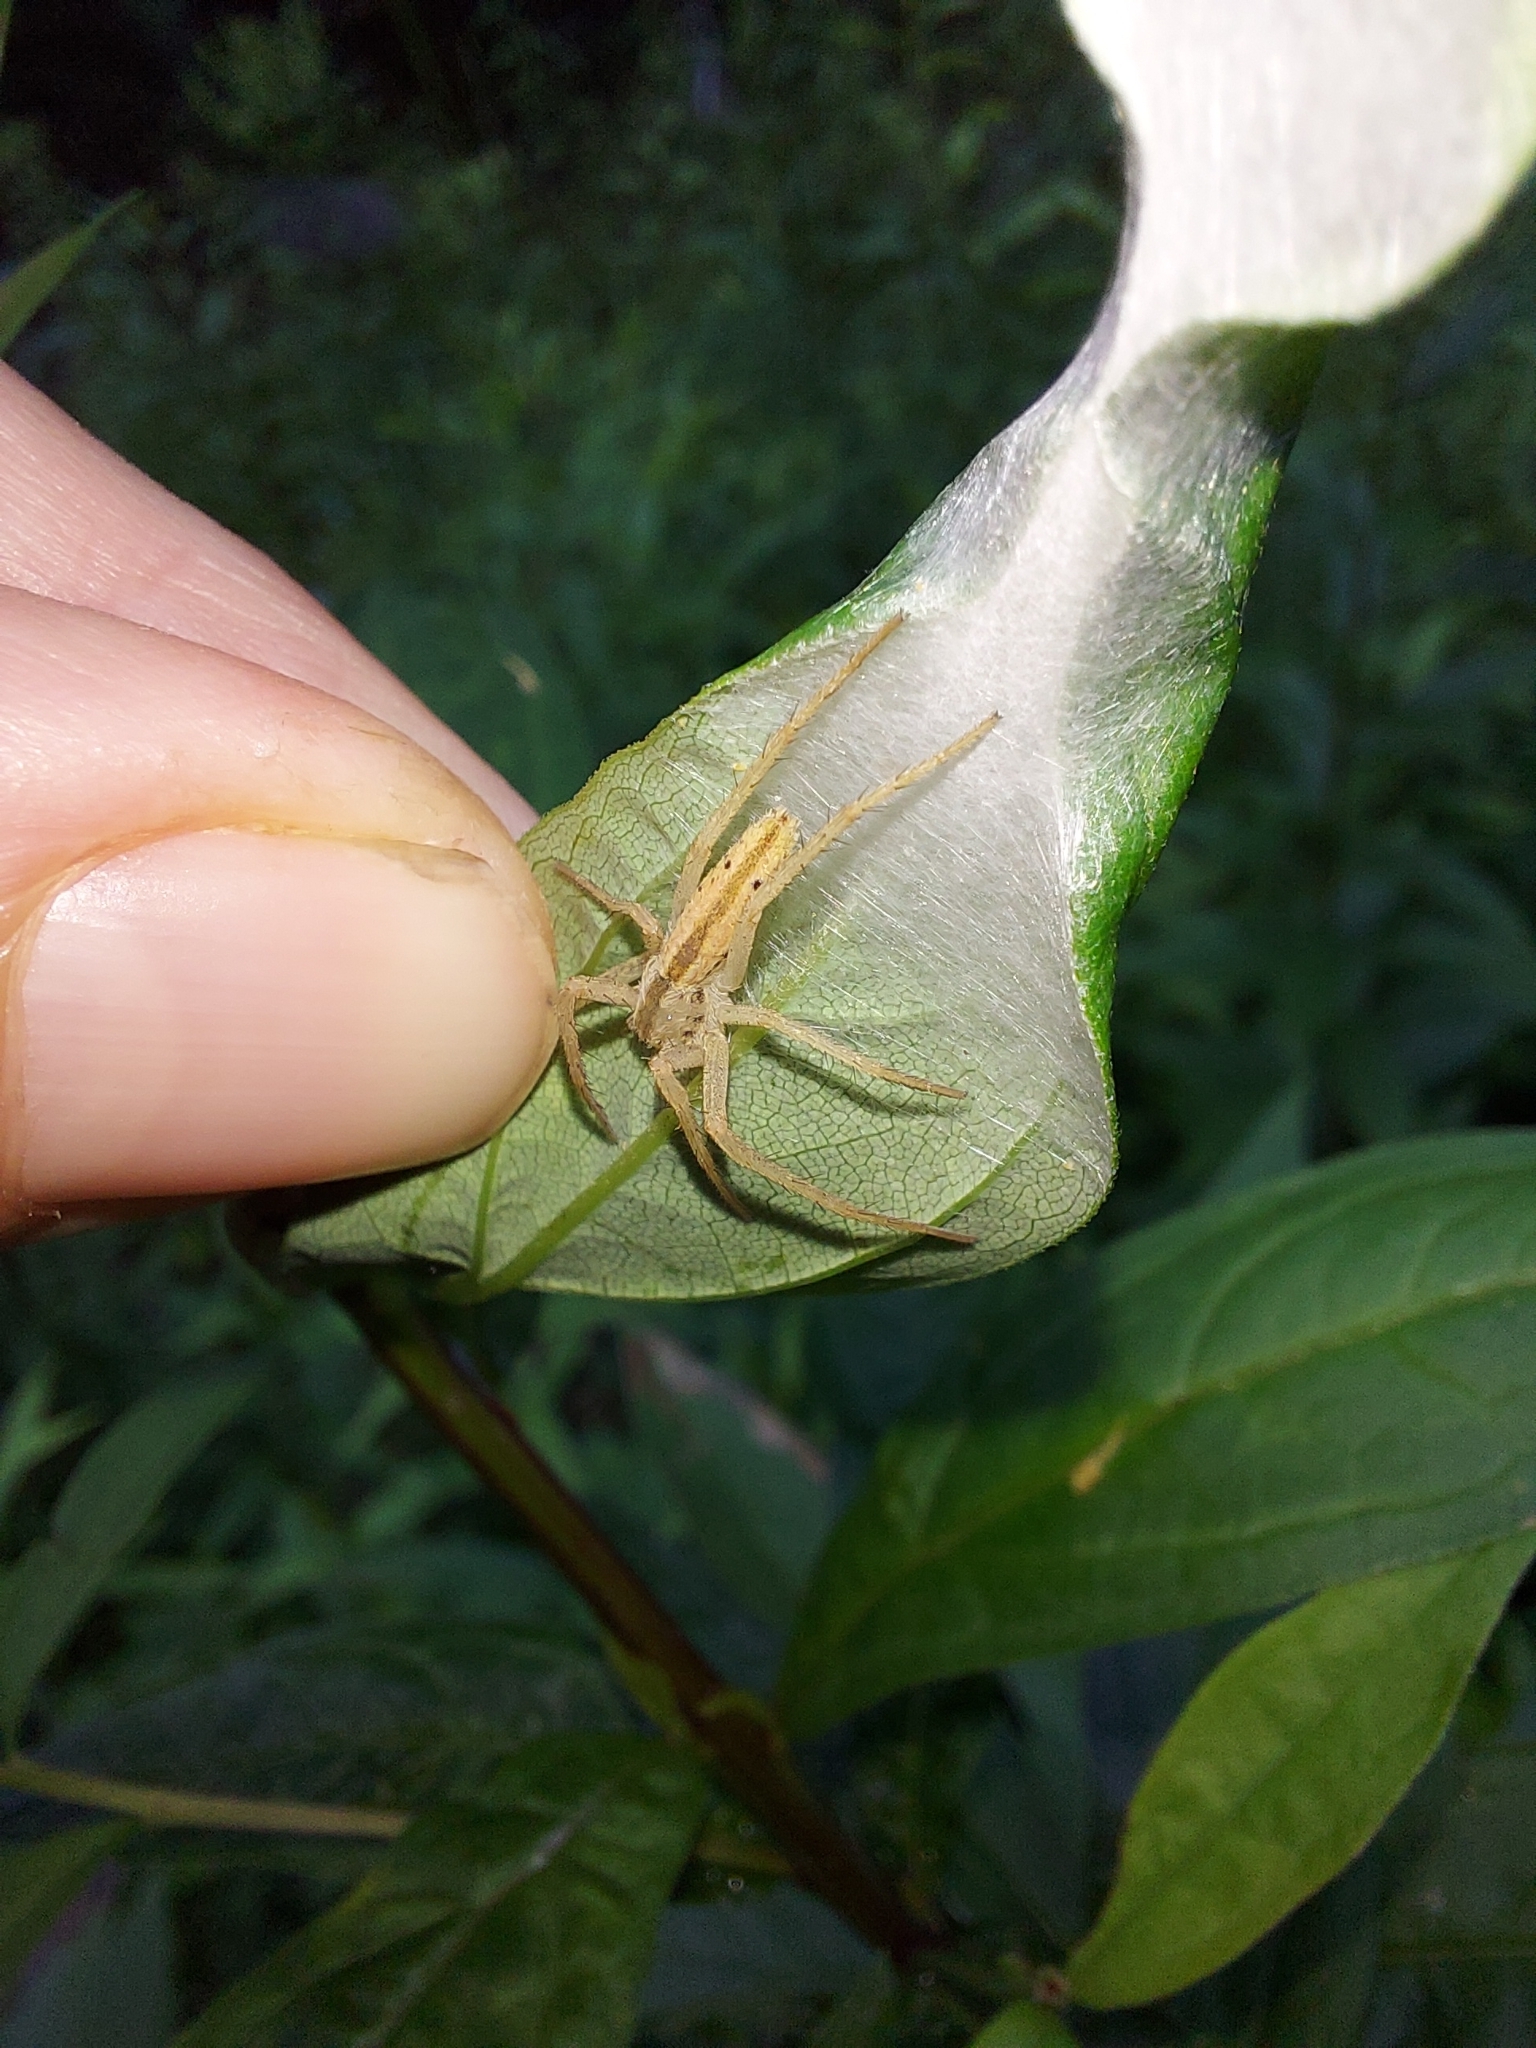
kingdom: Animalia
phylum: Arthropoda
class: Arachnida
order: Araneae
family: Philodromidae
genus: Tibellus
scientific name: Tibellus oblongus
